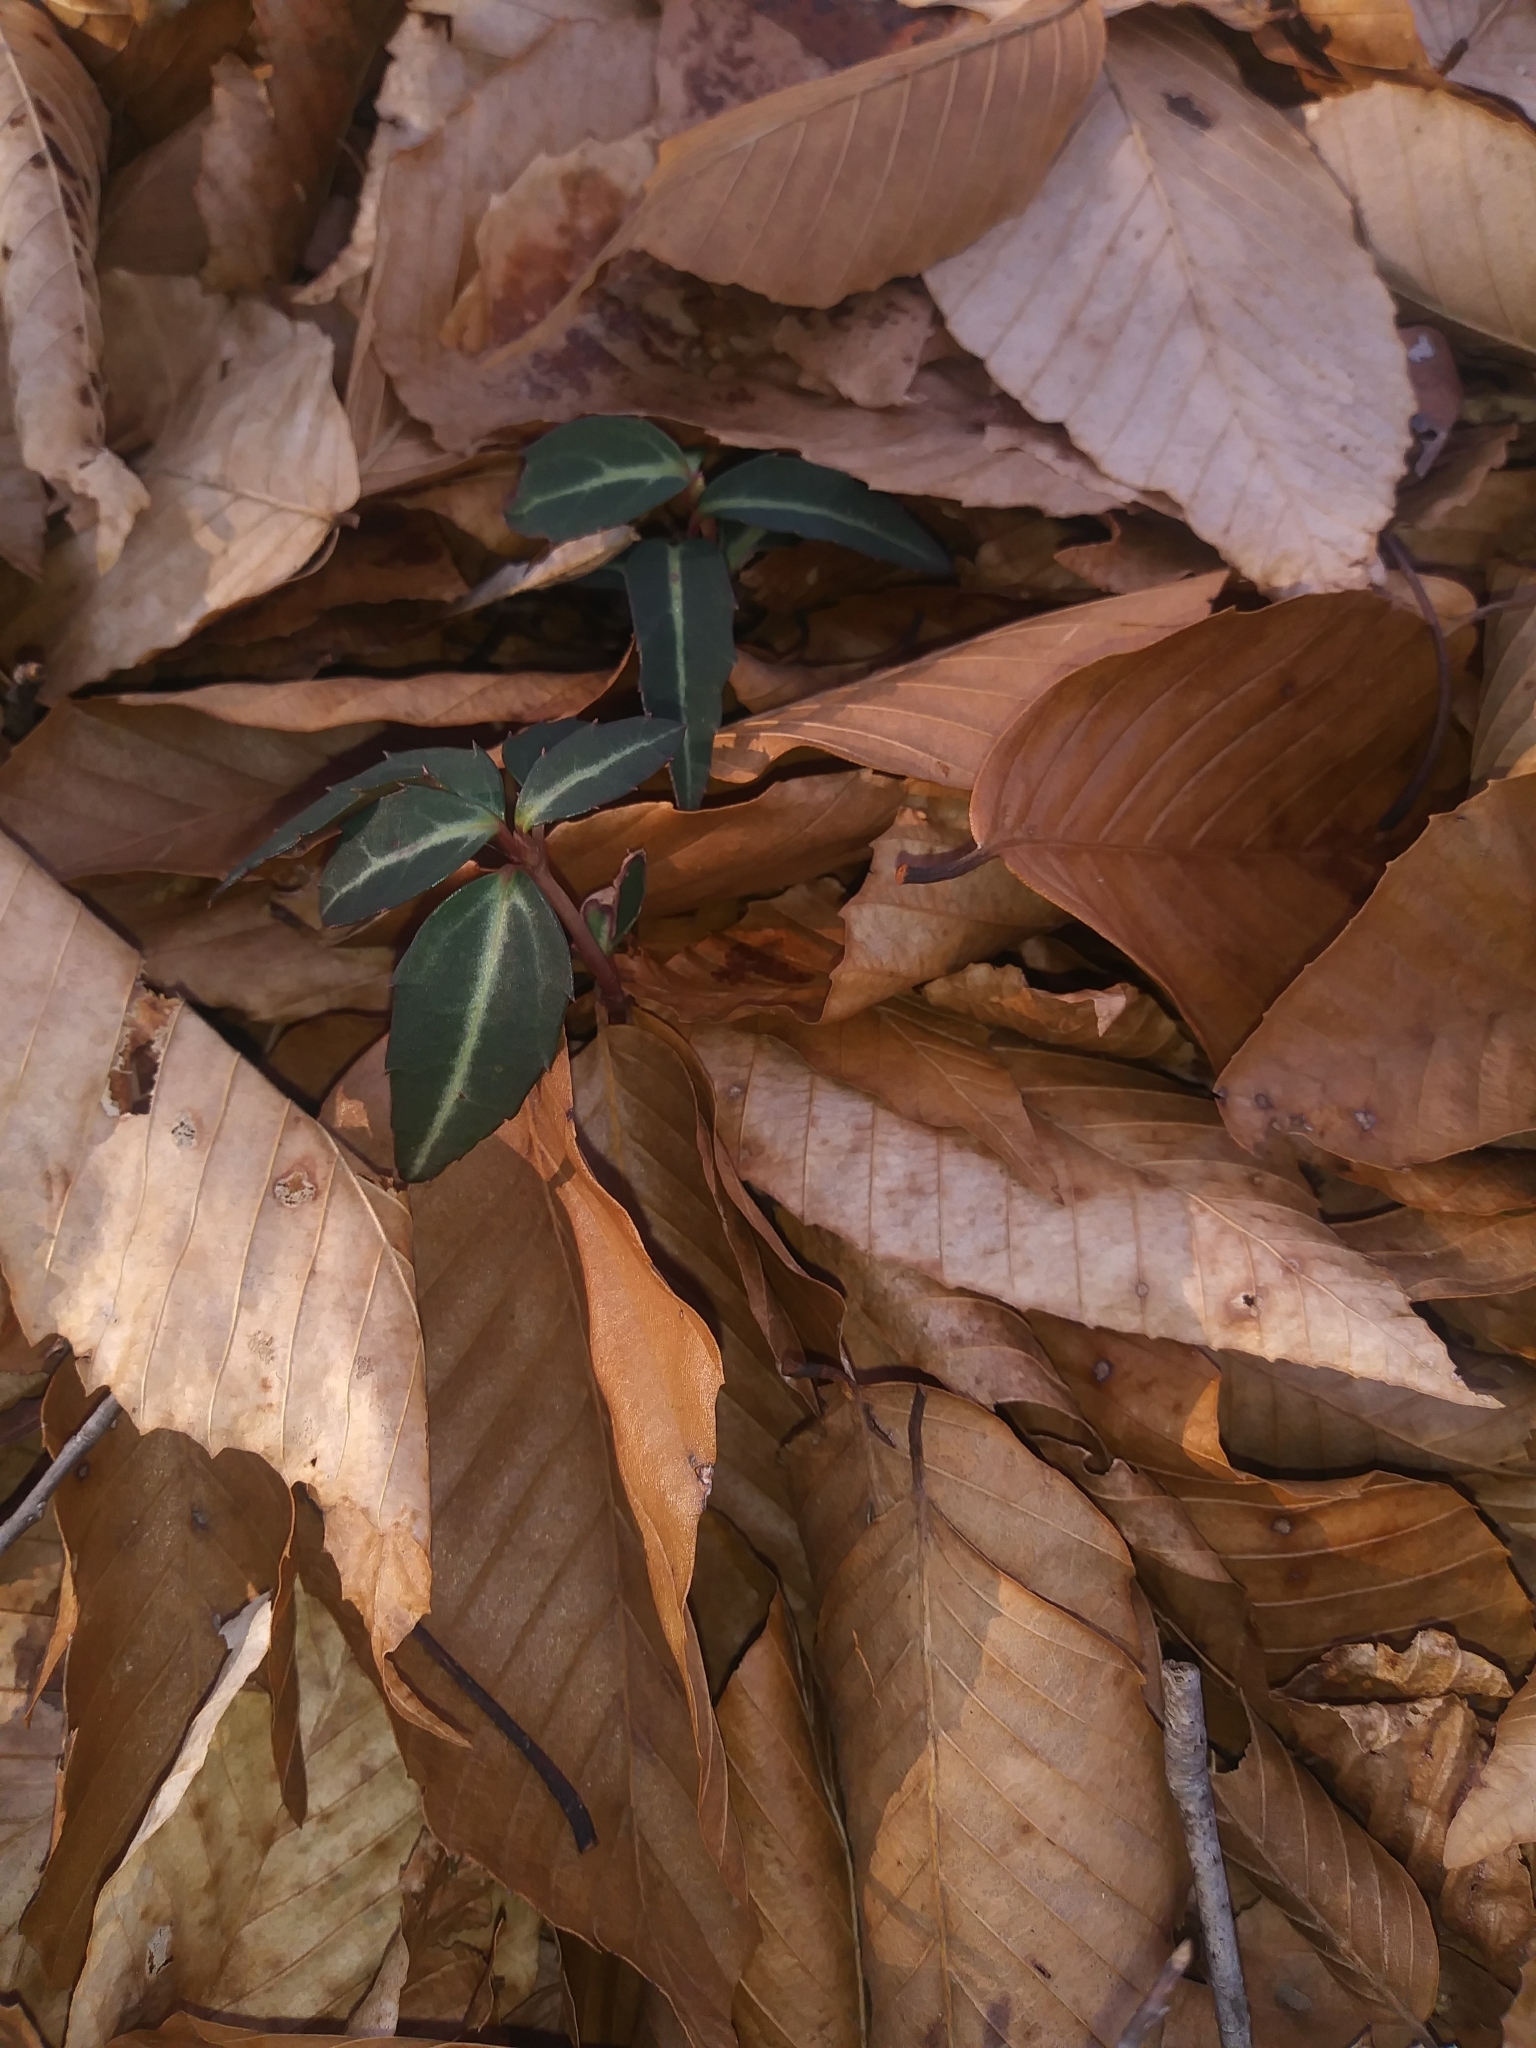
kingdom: Plantae
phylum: Tracheophyta
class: Magnoliopsida
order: Ericales
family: Ericaceae
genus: Chimaphila
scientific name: Chimaphila maculata
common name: Spotted pipsissewa
